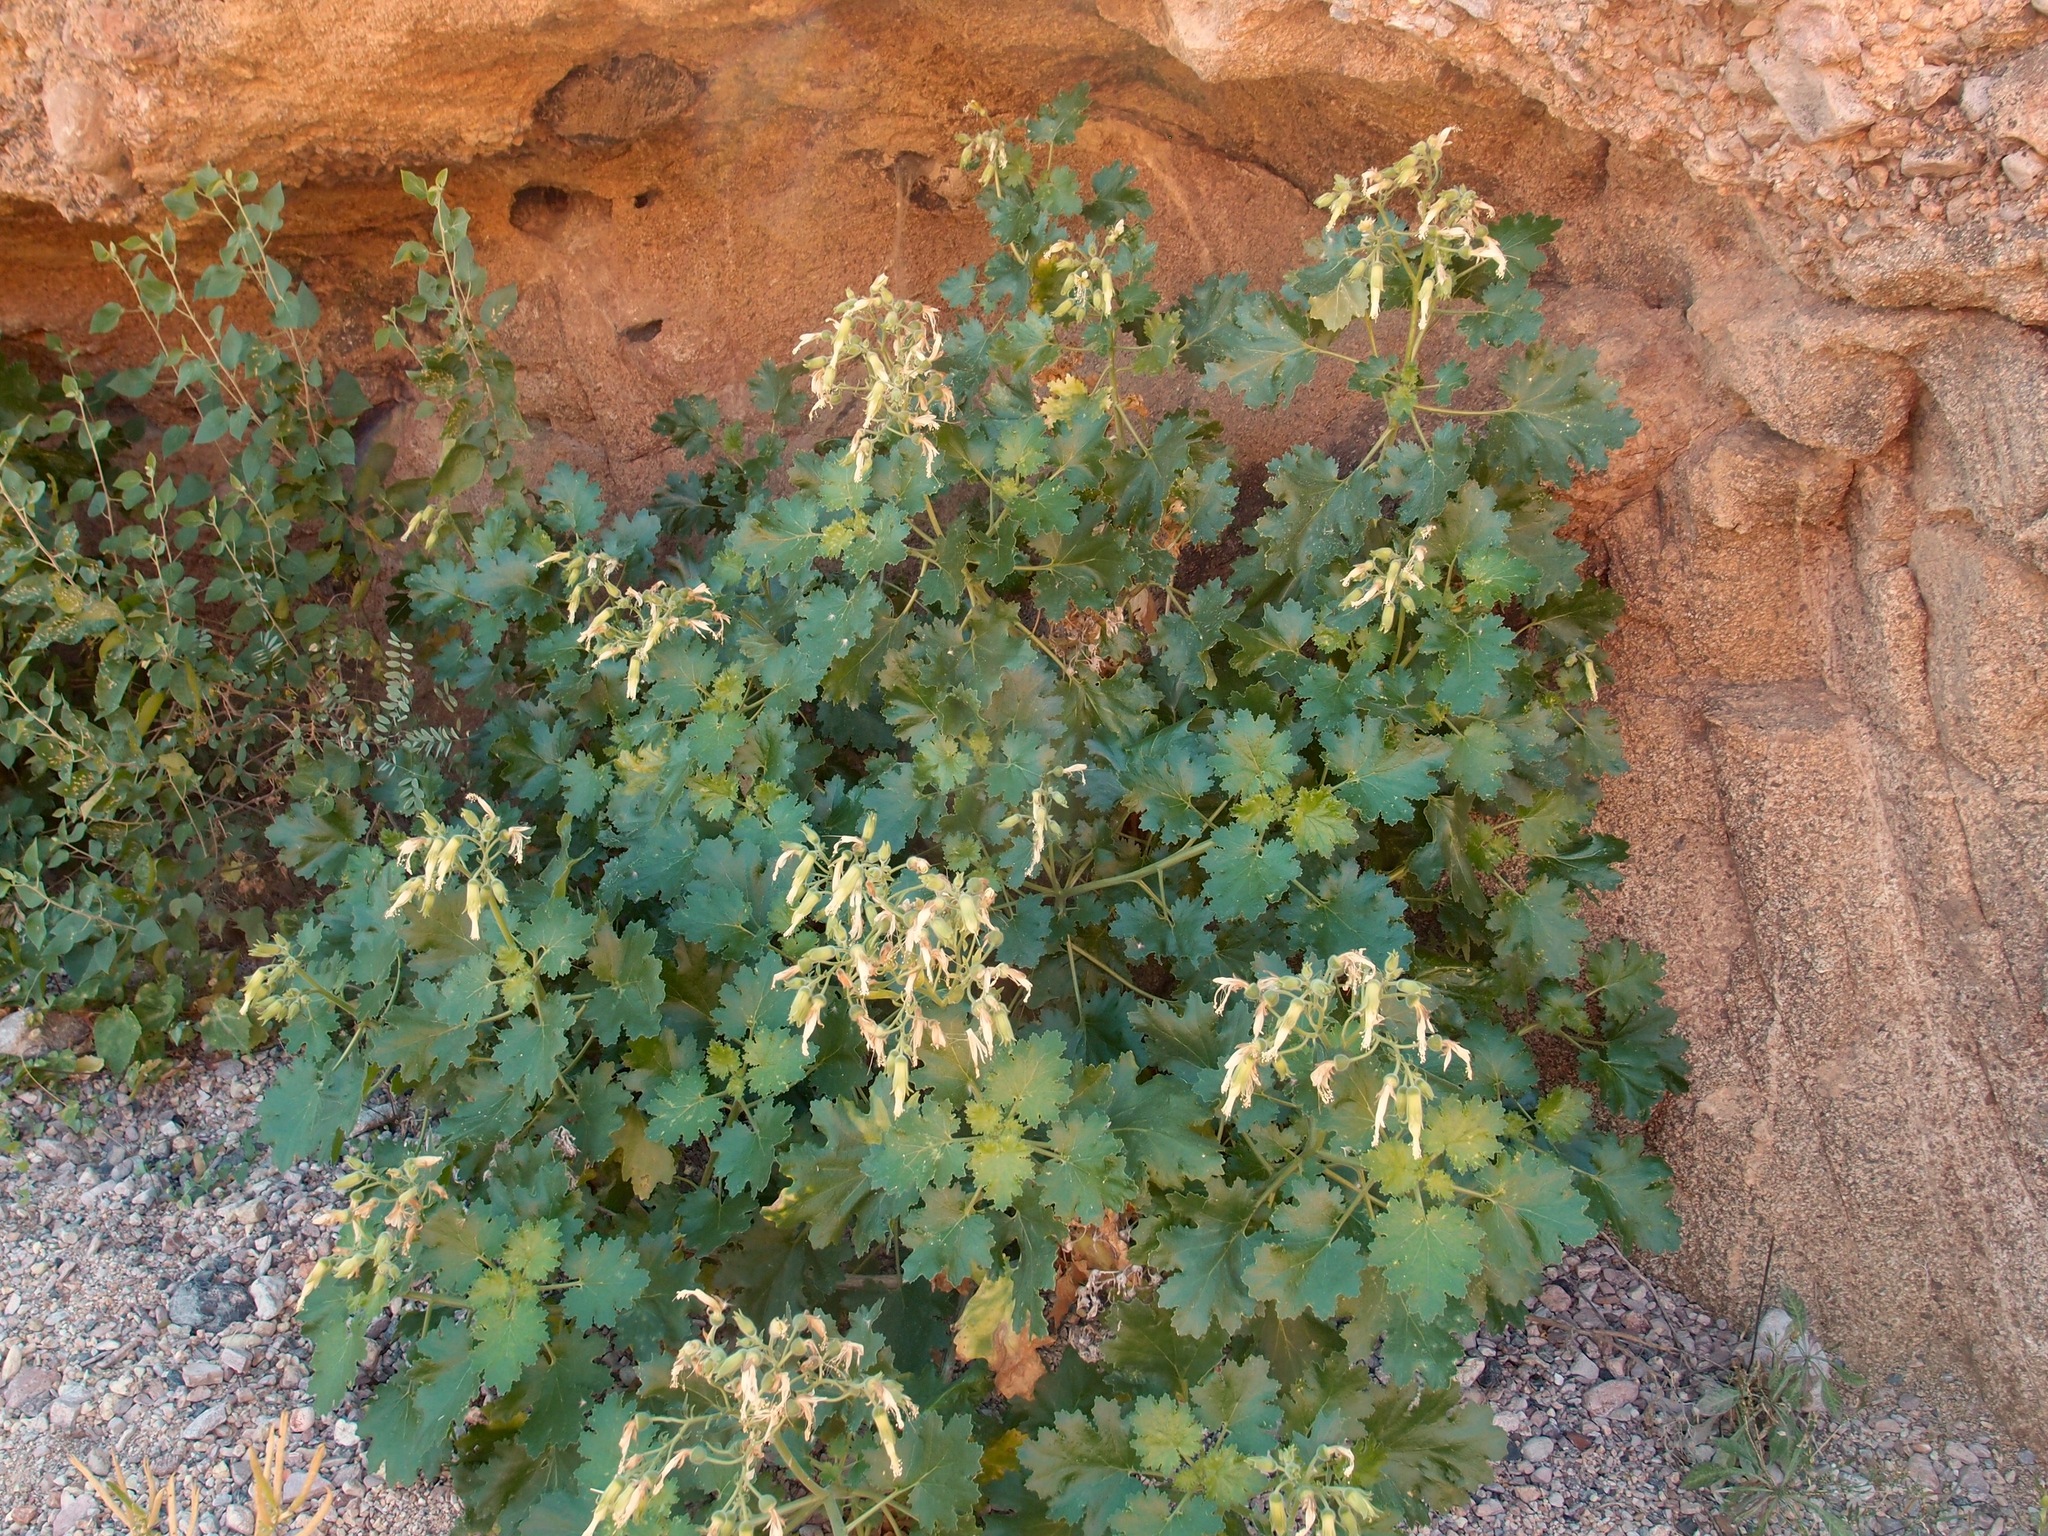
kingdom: Plantae
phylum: Tracheophyta
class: Magnoliopsida
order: Cornales
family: Loasaceae
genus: Eucnide
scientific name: Eucnide cordata
